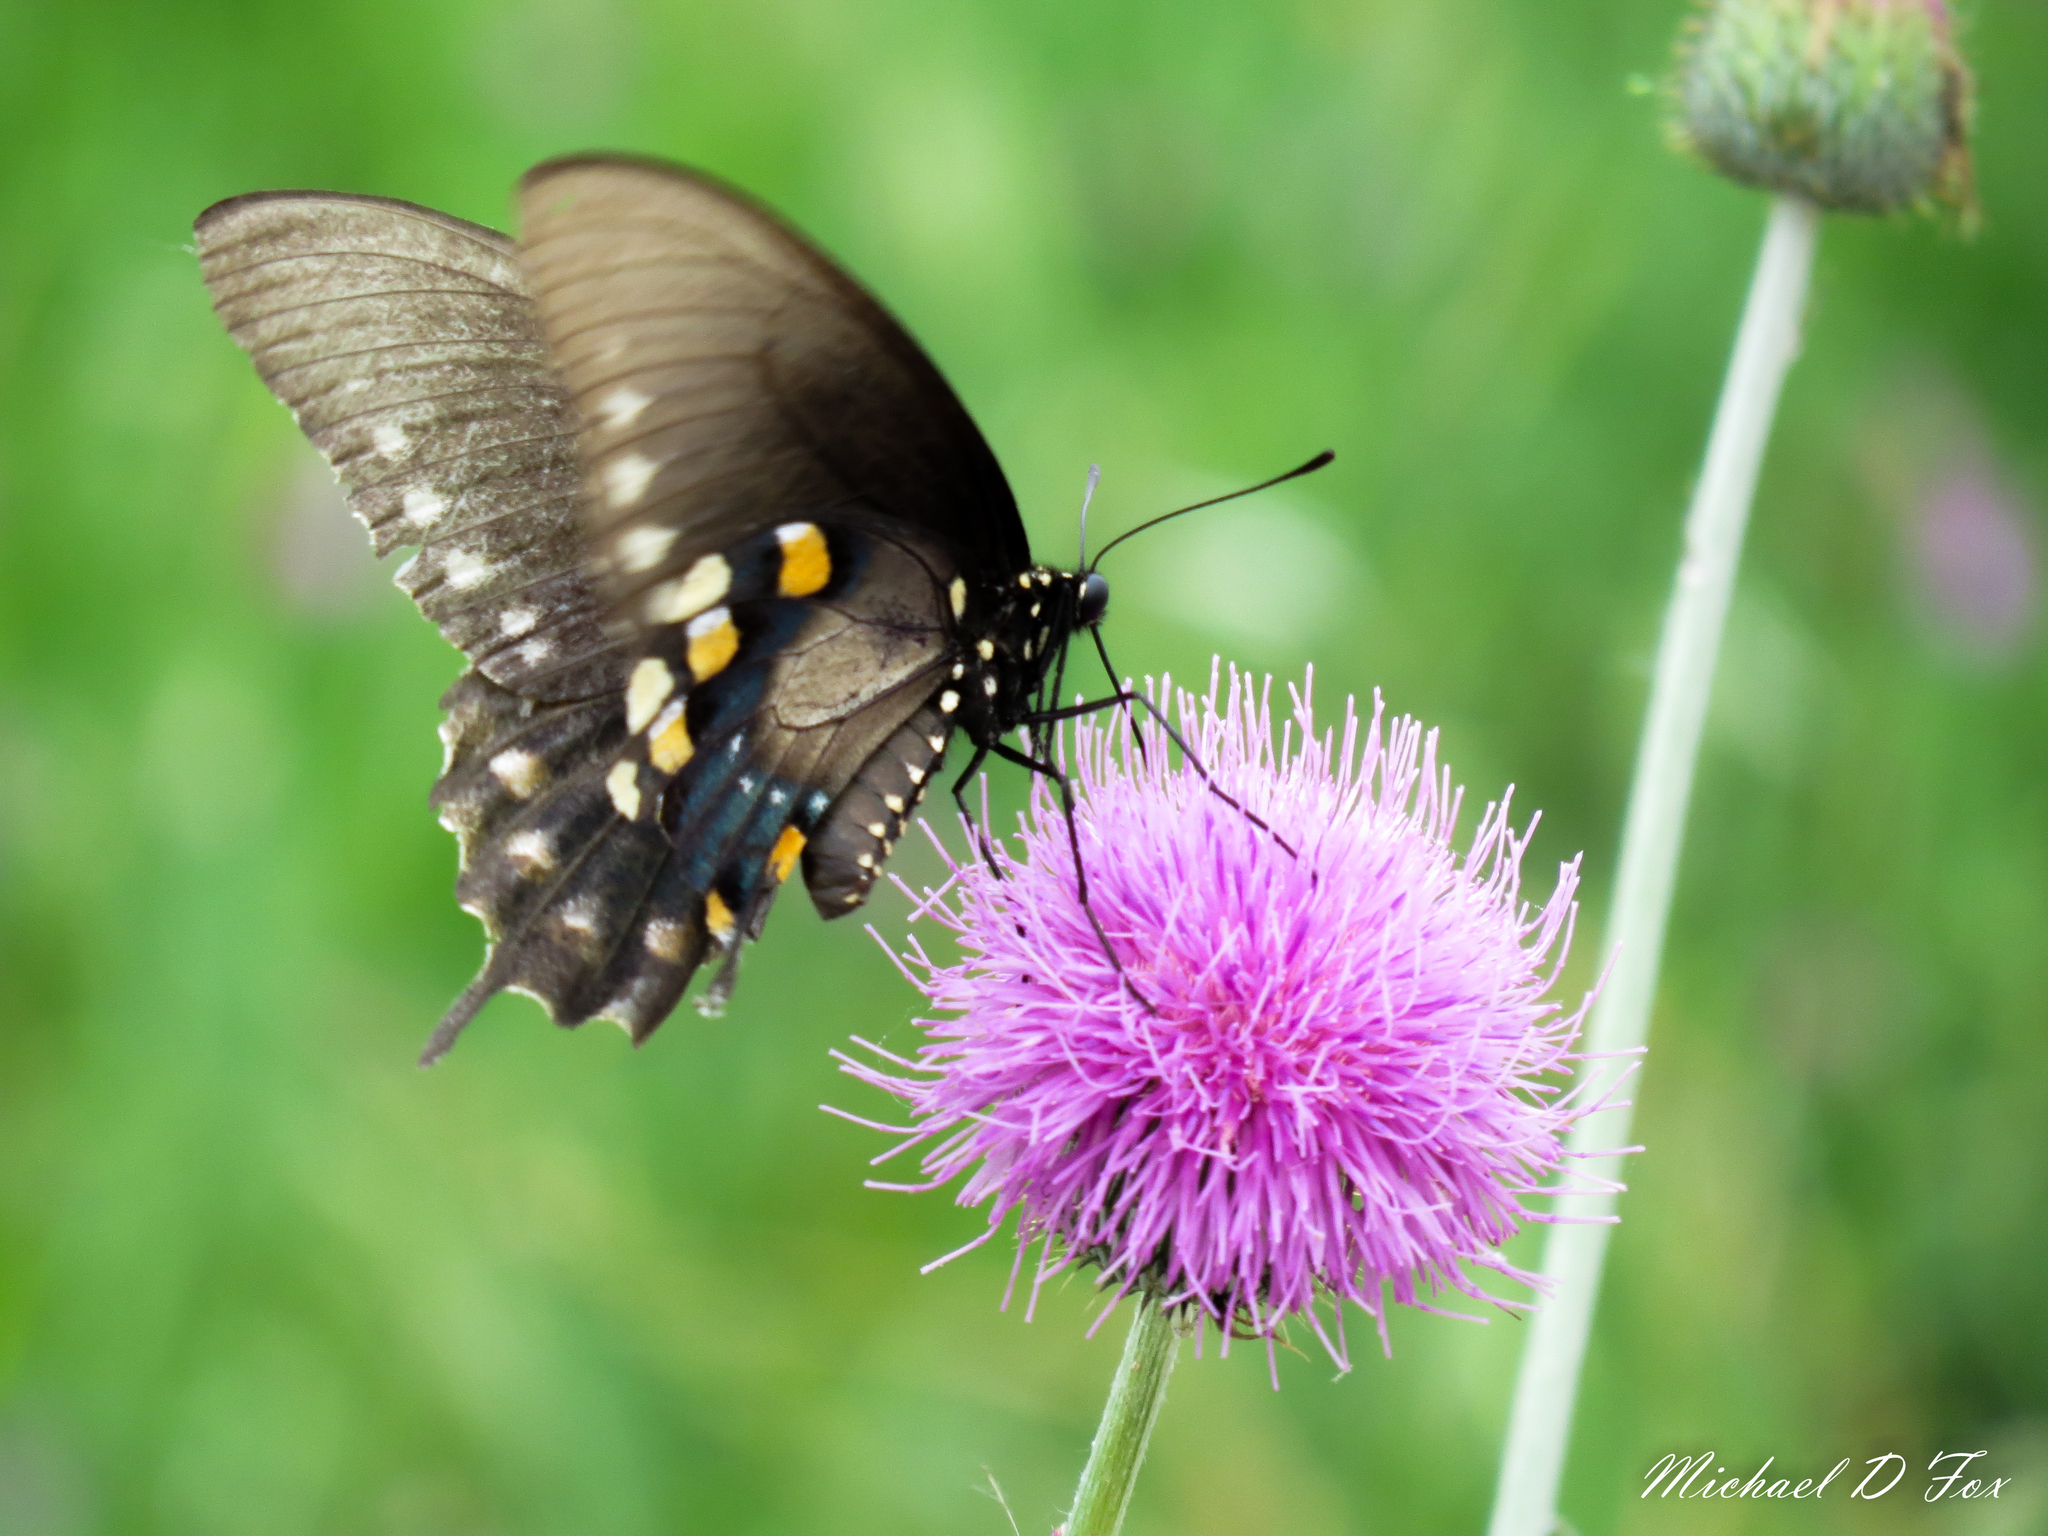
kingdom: Animalia
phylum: Arthropoda
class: Insecta
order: Lepidoptera
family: Papilionidae
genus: Battus
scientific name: Battus philenor
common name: Pipevine swallowtail
